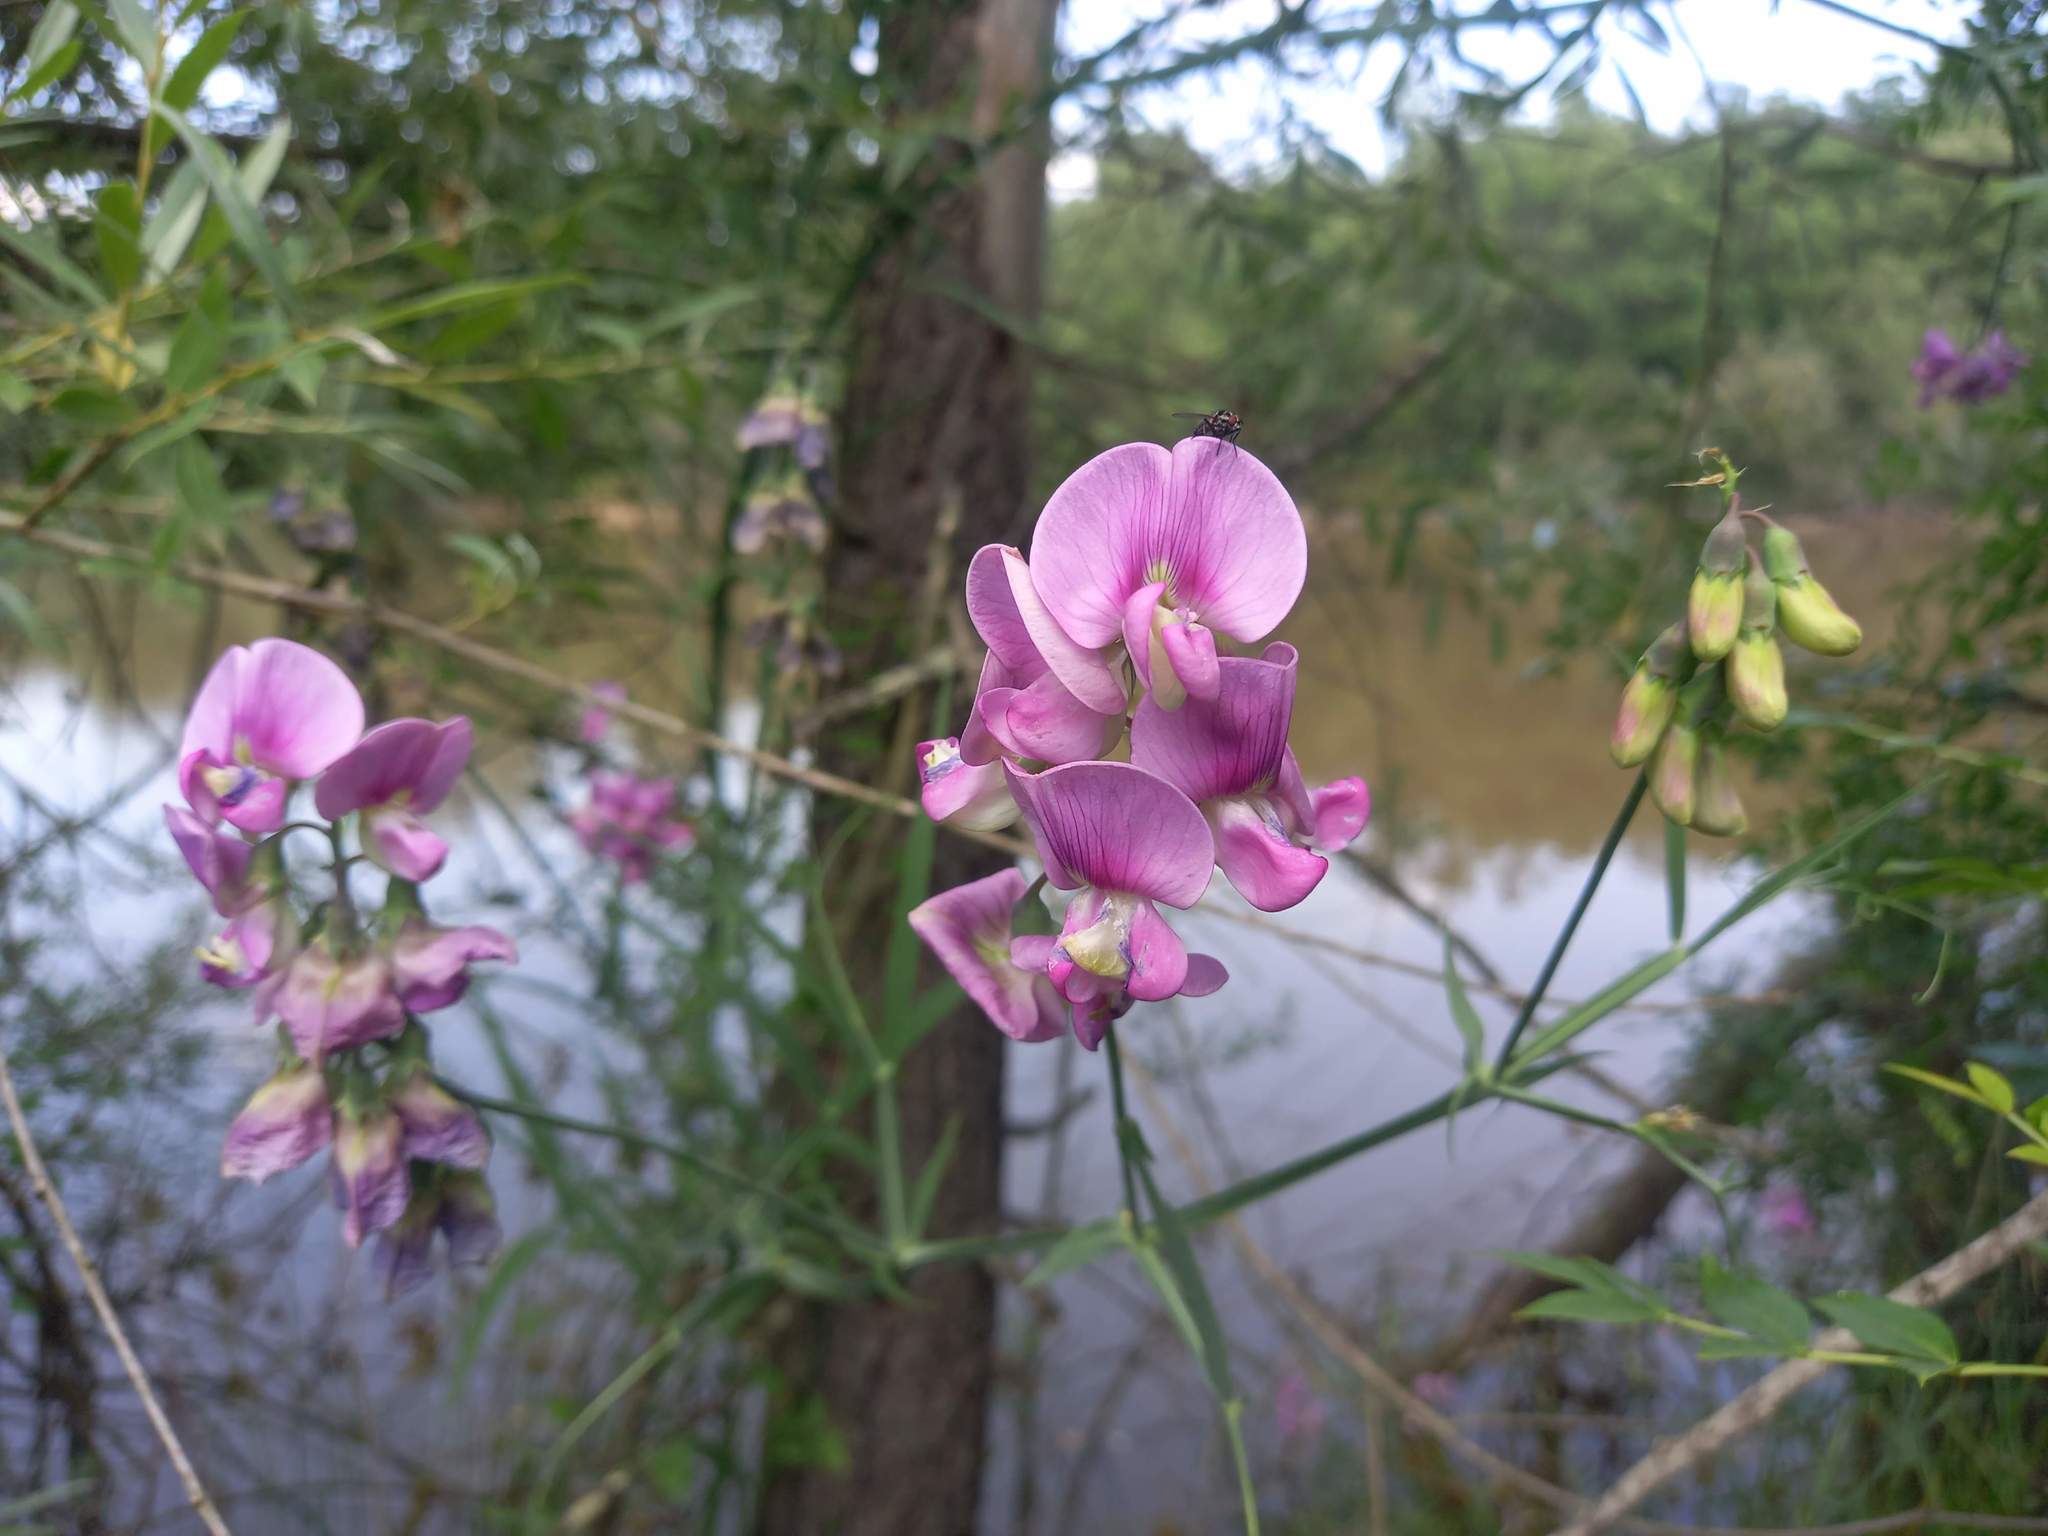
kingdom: Plantae
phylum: Tracheophyta
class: Magnoliopsida
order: Fabales
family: Fabaceae
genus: Lathyrus
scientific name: Lathyrus latifolius
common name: Perennial pea
